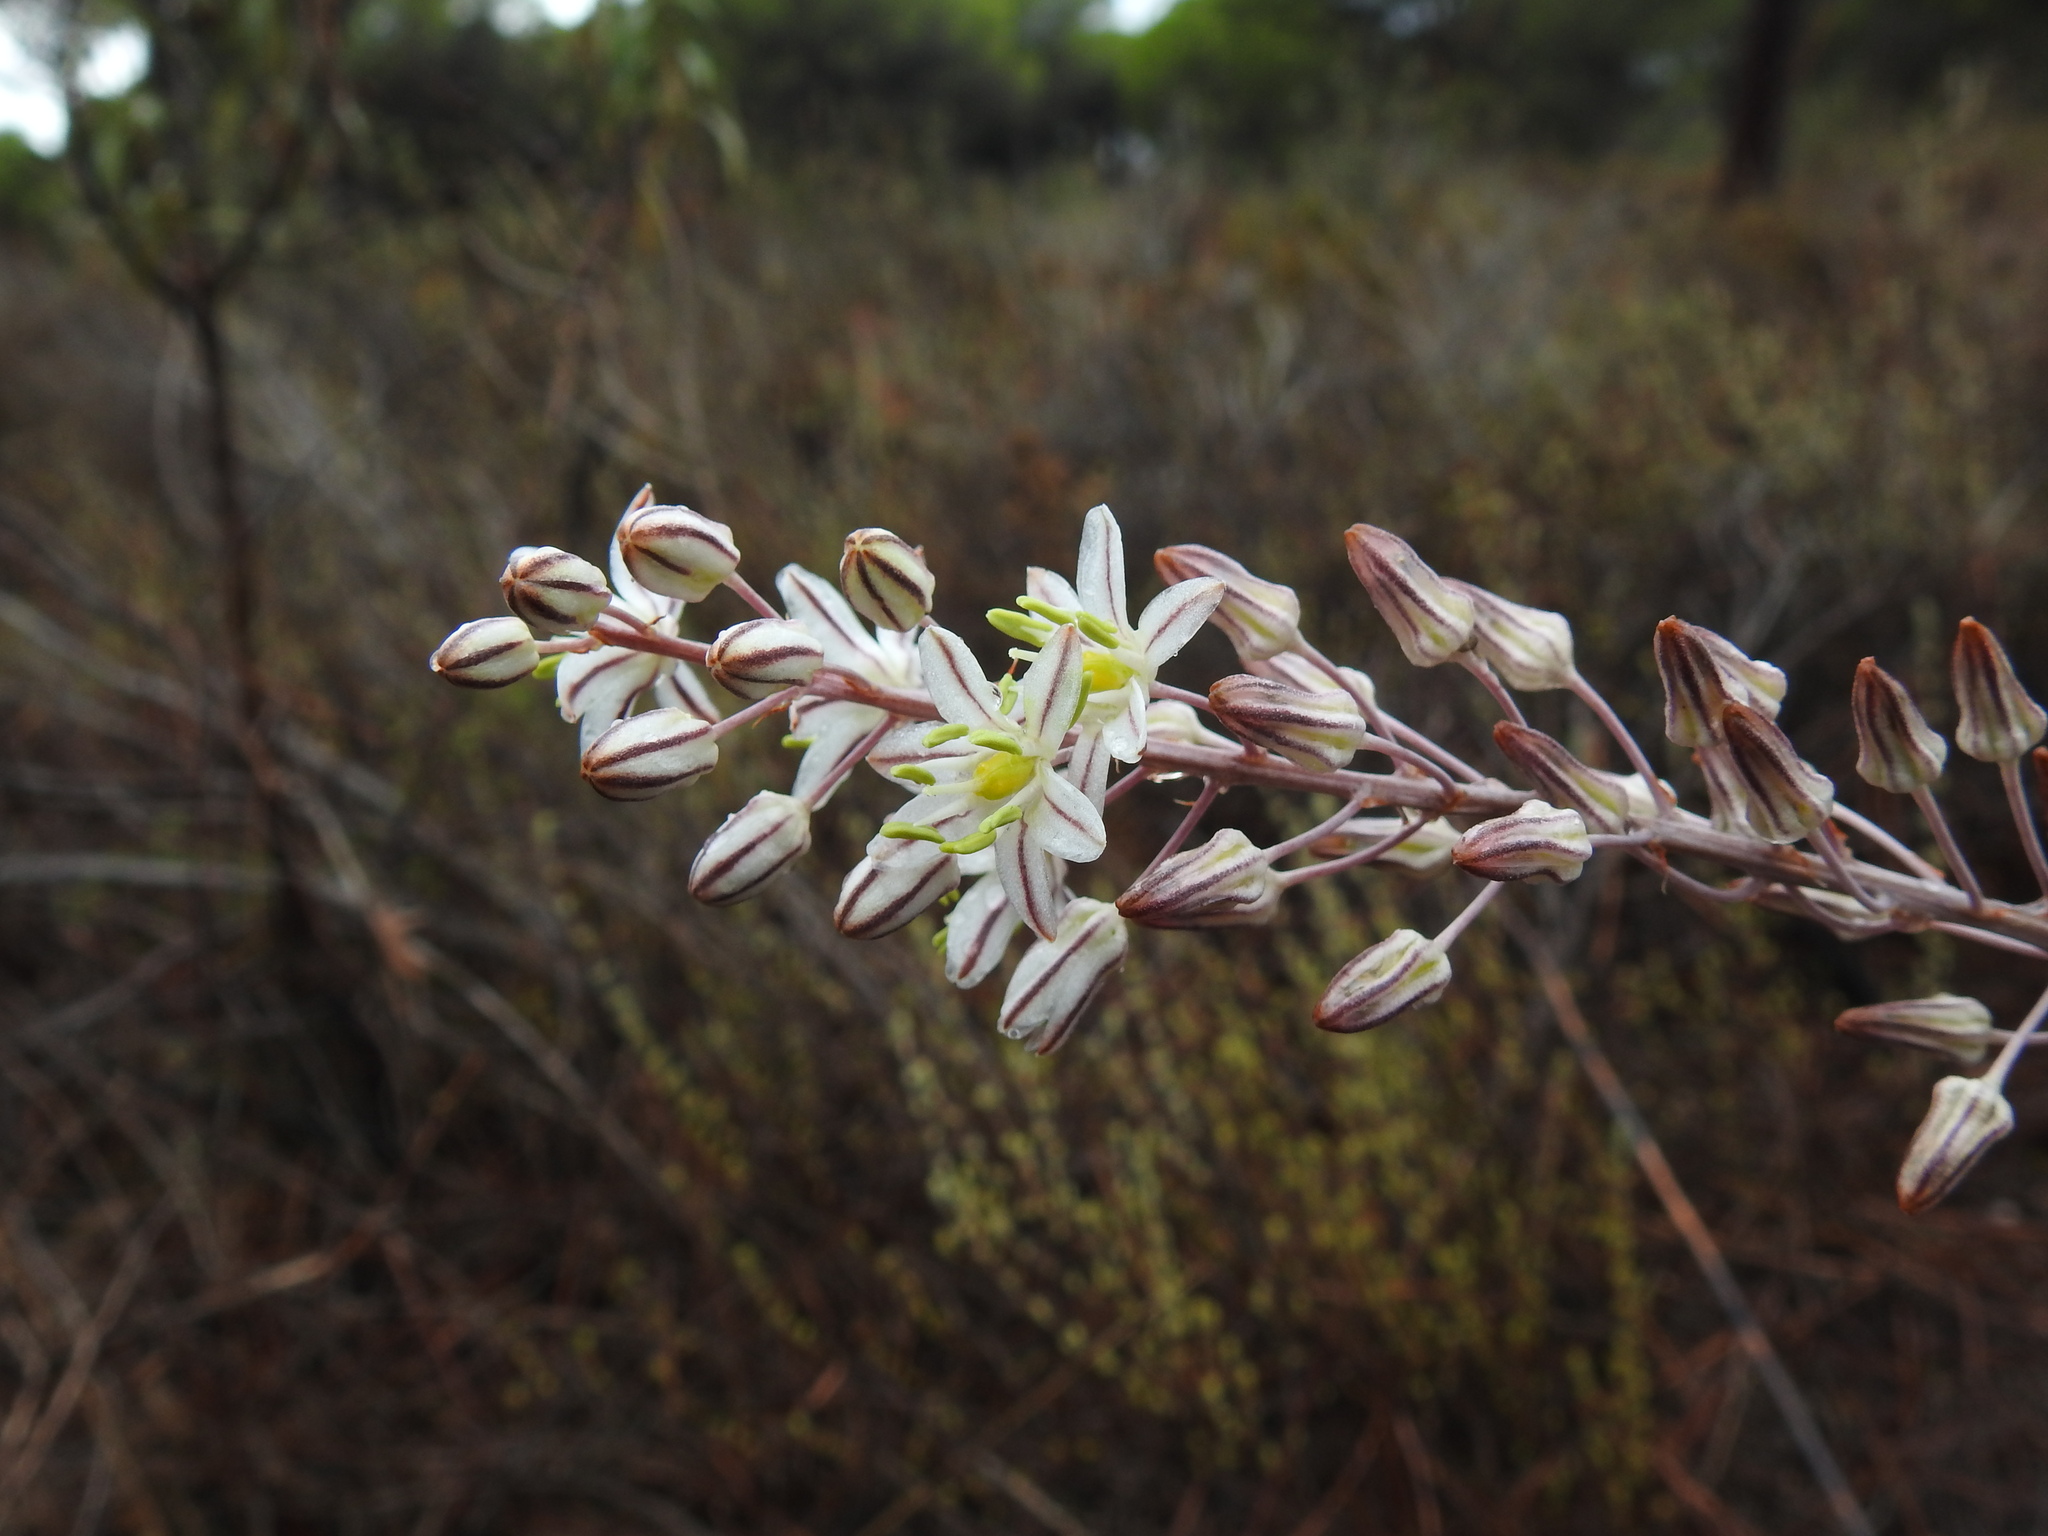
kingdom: Plantae
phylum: Tracheophyta
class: Liliopsida
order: Asparagales
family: Asparagaceae
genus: Drimia
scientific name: Drimia maritima
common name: Maritime squill
